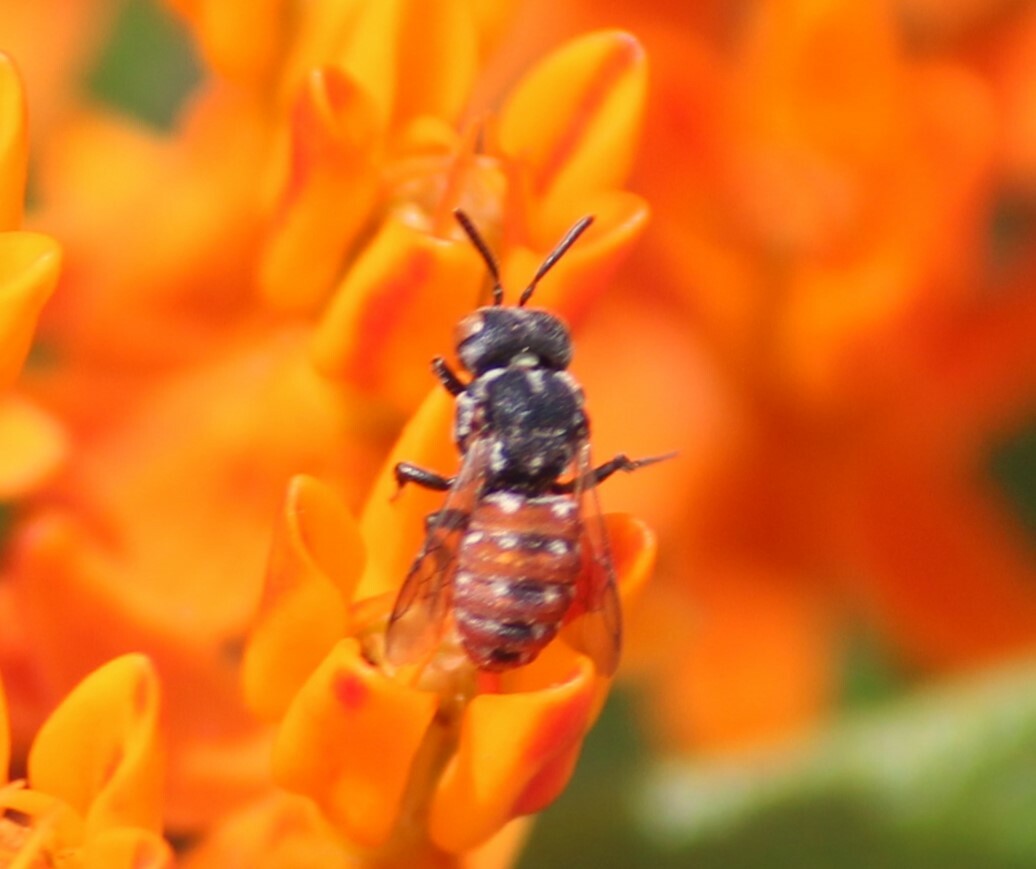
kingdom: Animalia
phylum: Arthropoda
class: Insecta
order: Hymenoptera
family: Apidae
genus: Holcopasites
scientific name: Holcopasites calliopsidis
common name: Calliopsis cuckoo nomad bee
